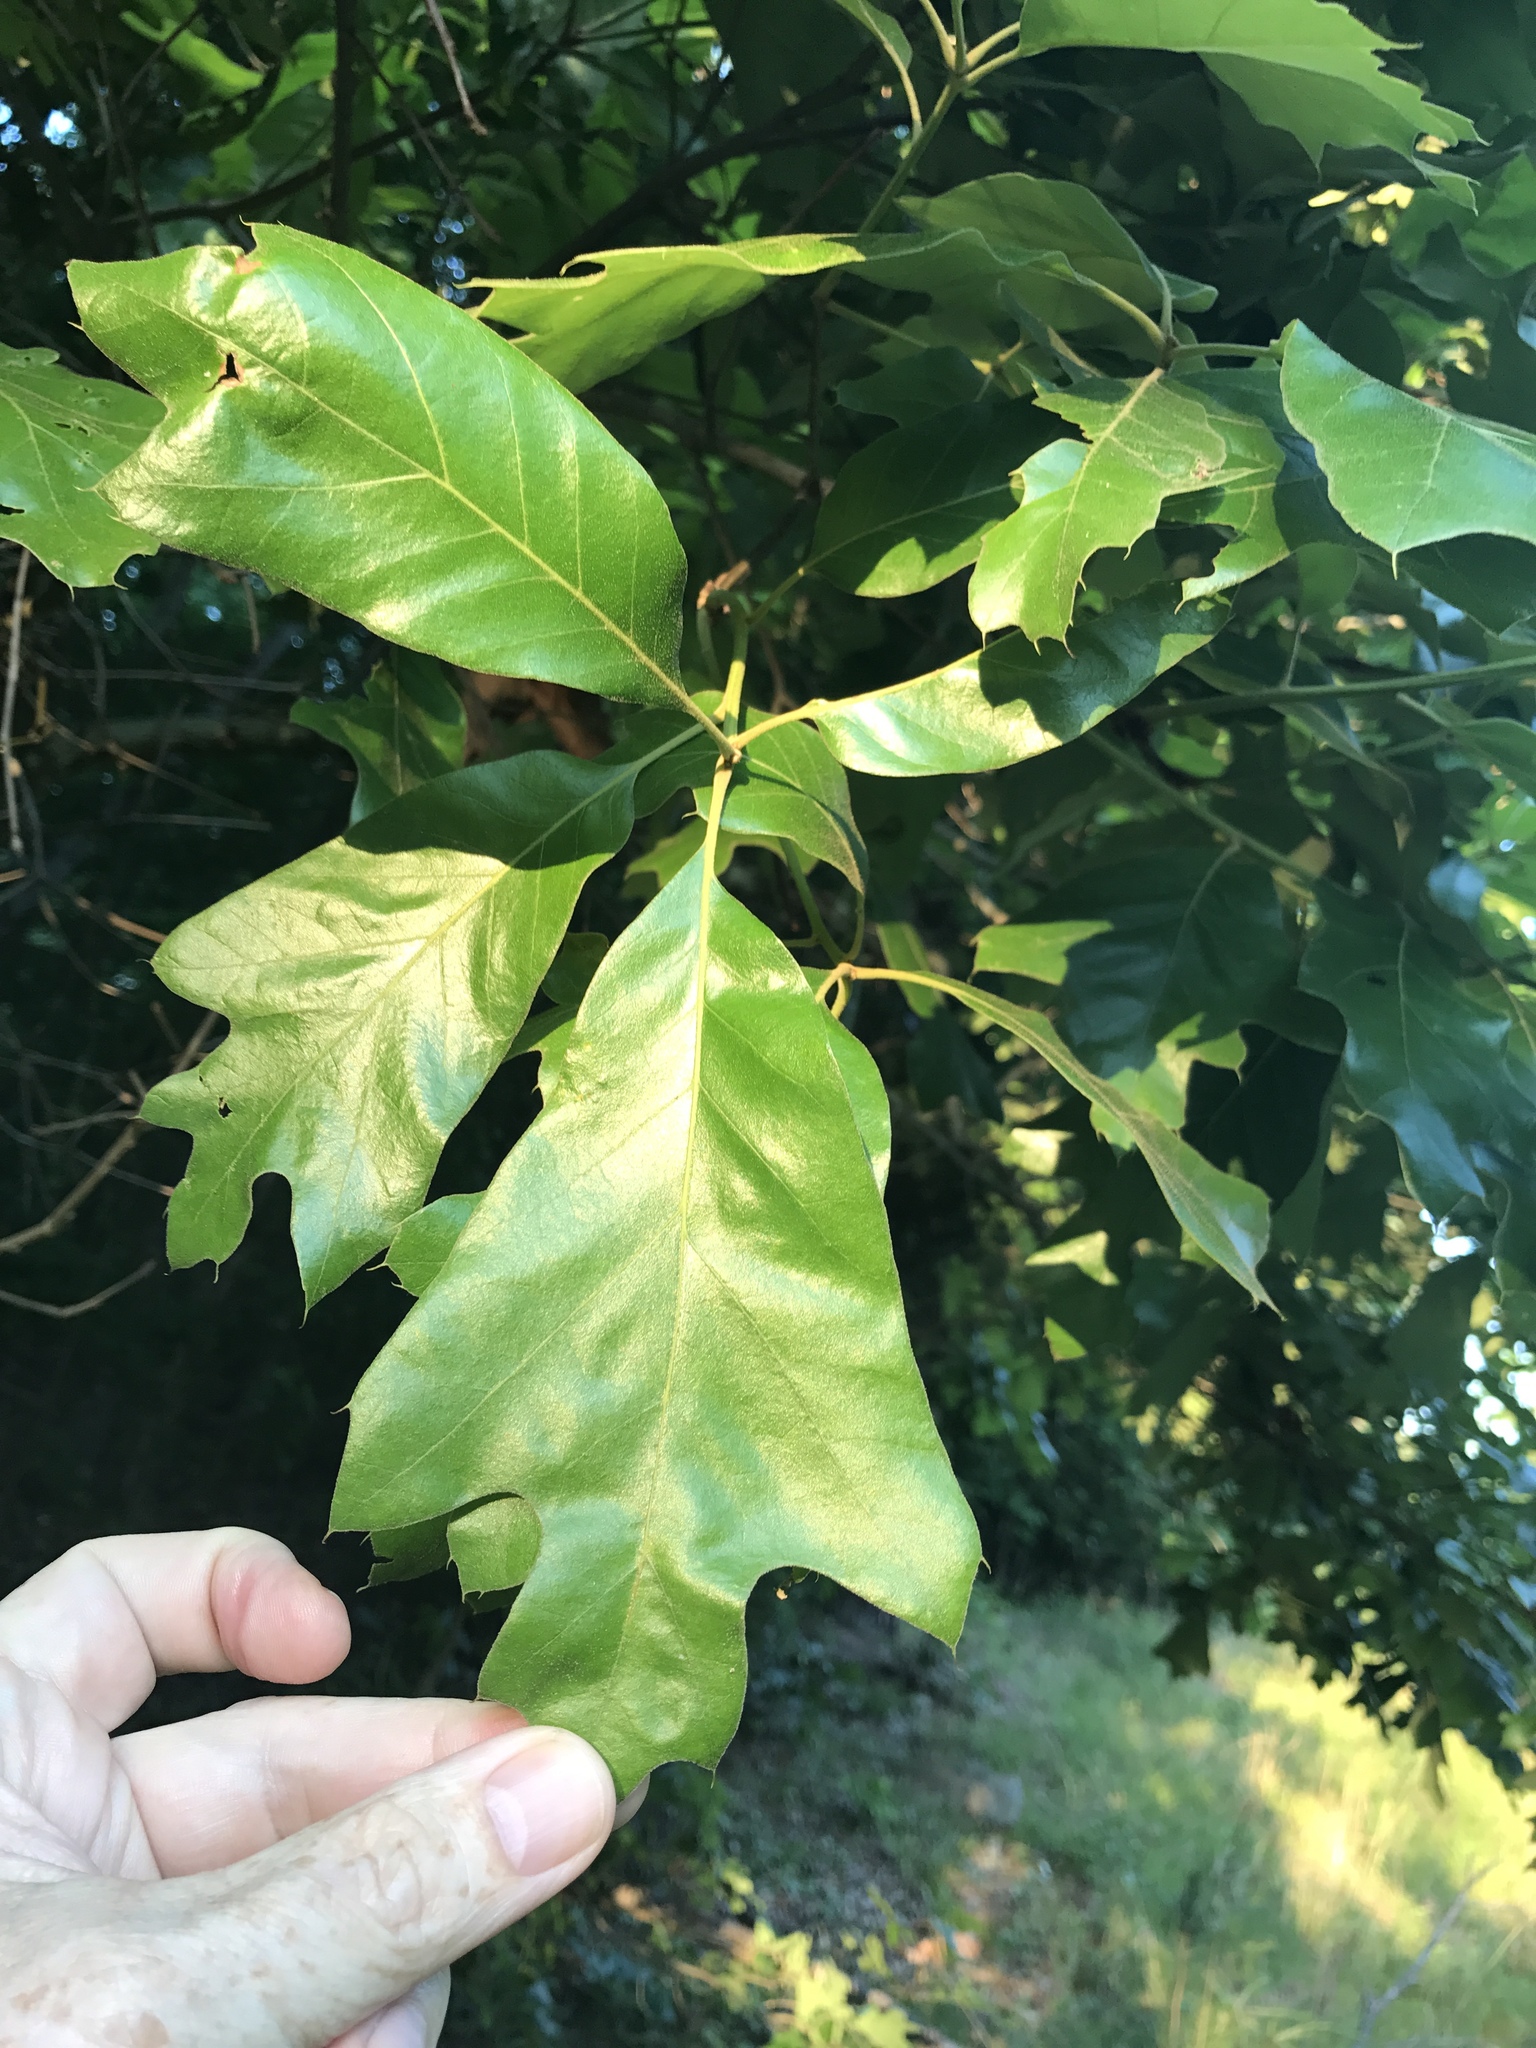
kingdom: Plantae
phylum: Tracheophyta
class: Magnoliopsida
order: Fagales
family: Fagaceae
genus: Quercus
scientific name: Quercus falcata
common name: Southern red oak
